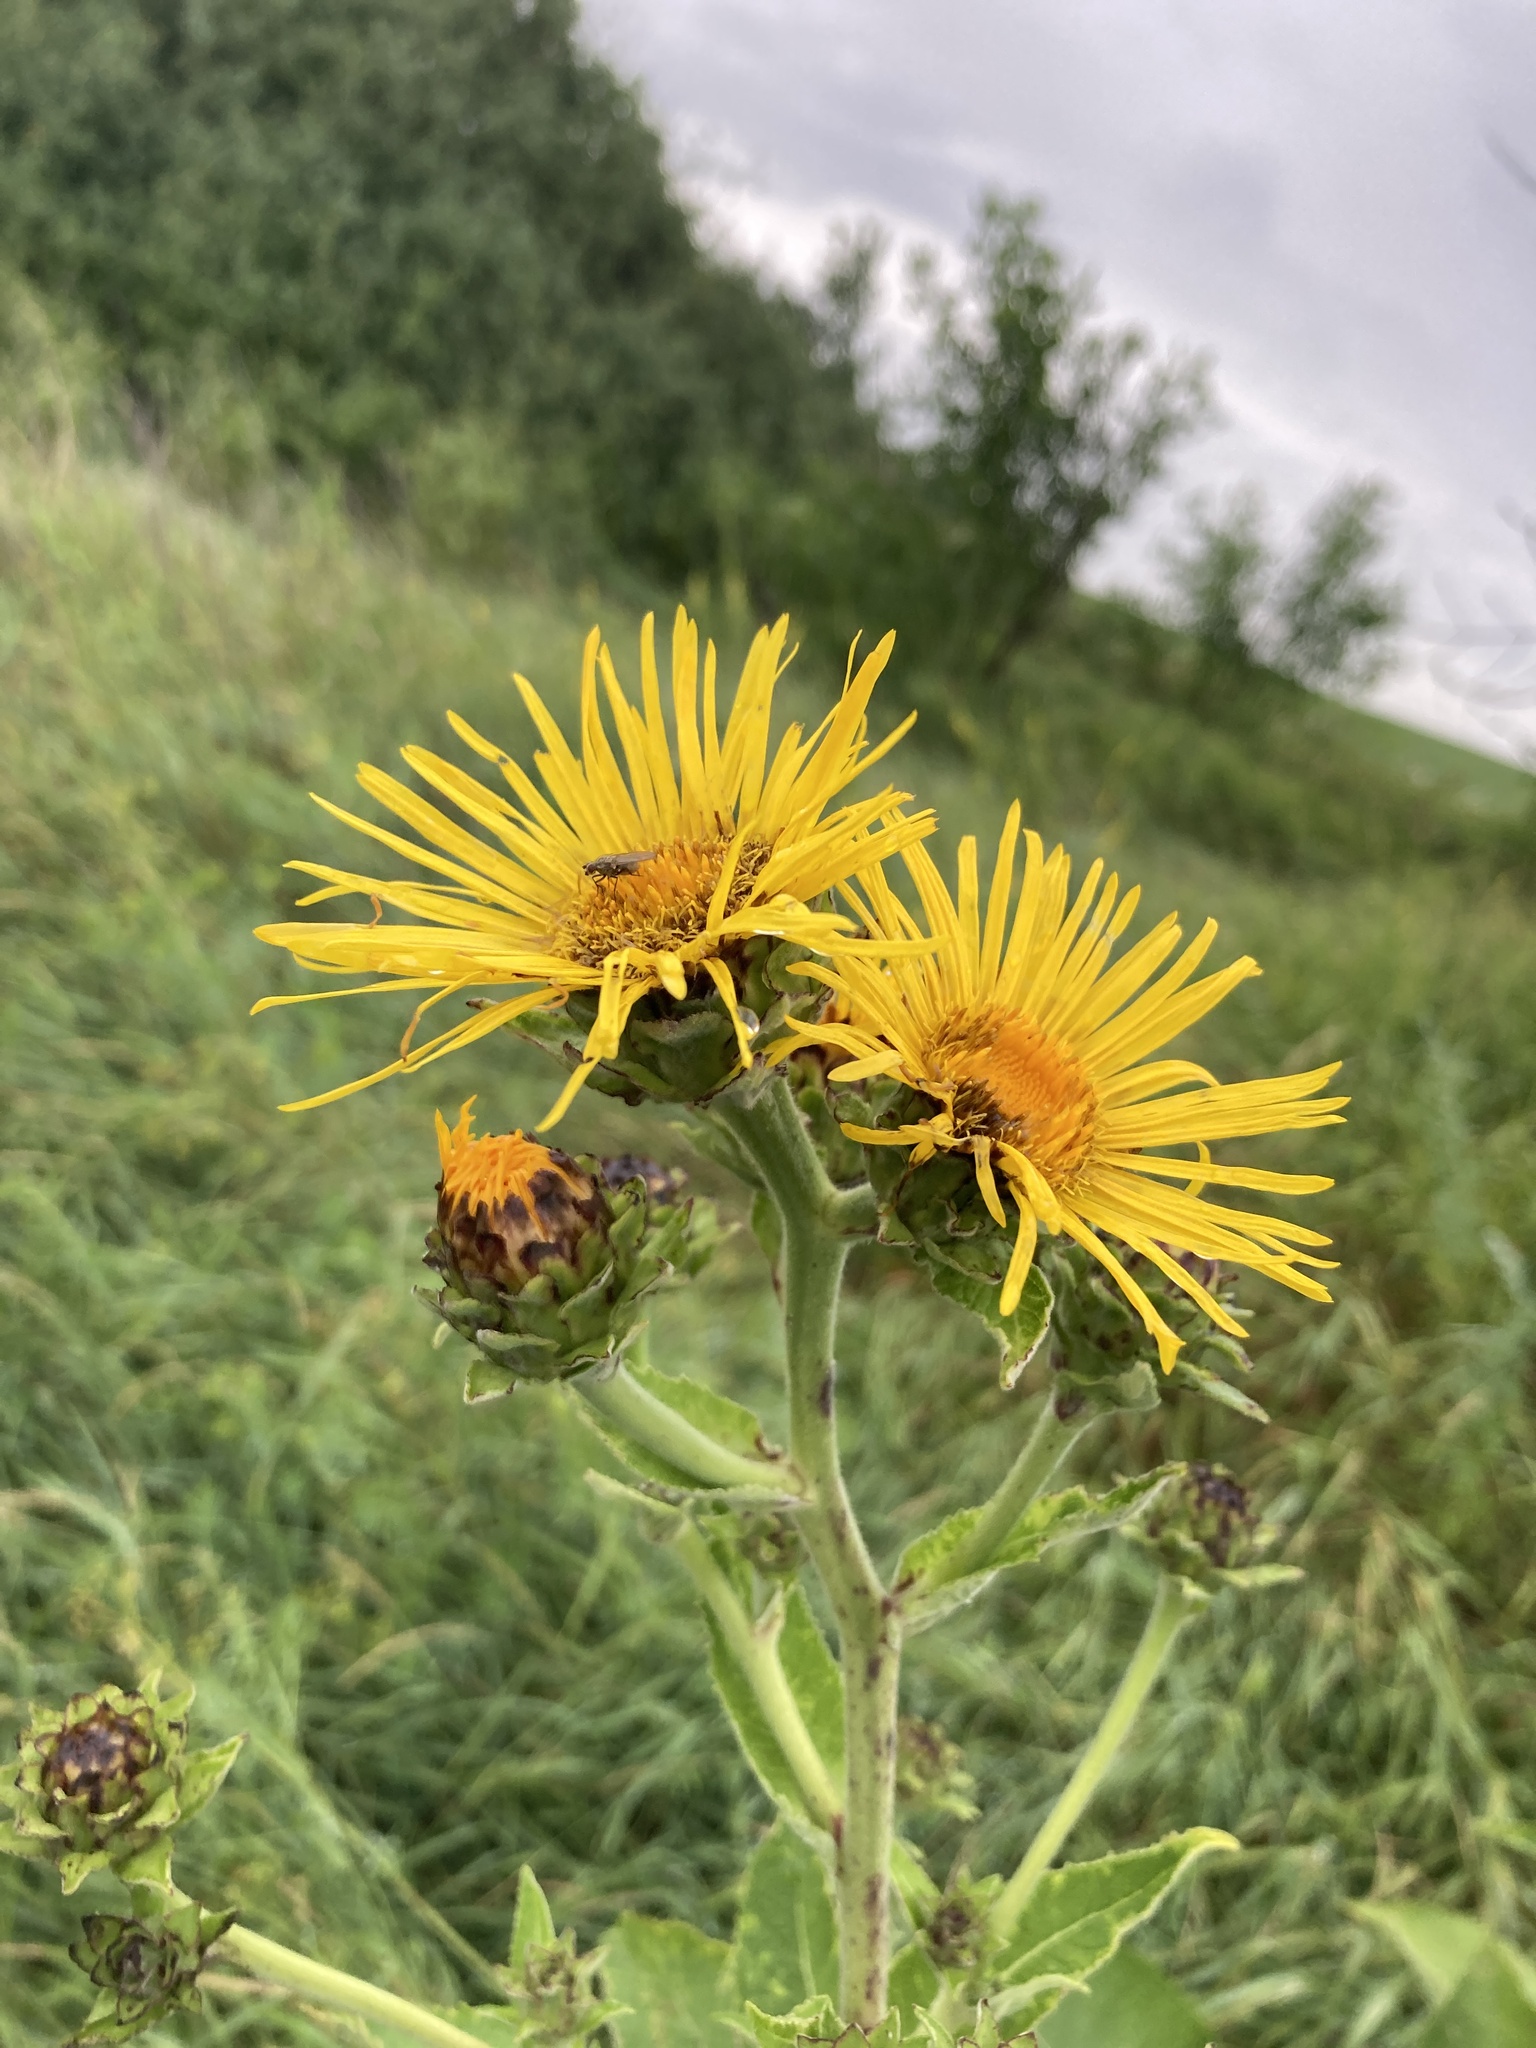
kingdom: Plantae
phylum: Tracheophyta
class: Magnoliopsida
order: Asterales
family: Asteraceae
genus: Inula
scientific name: Inula helenium
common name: Elecampane
